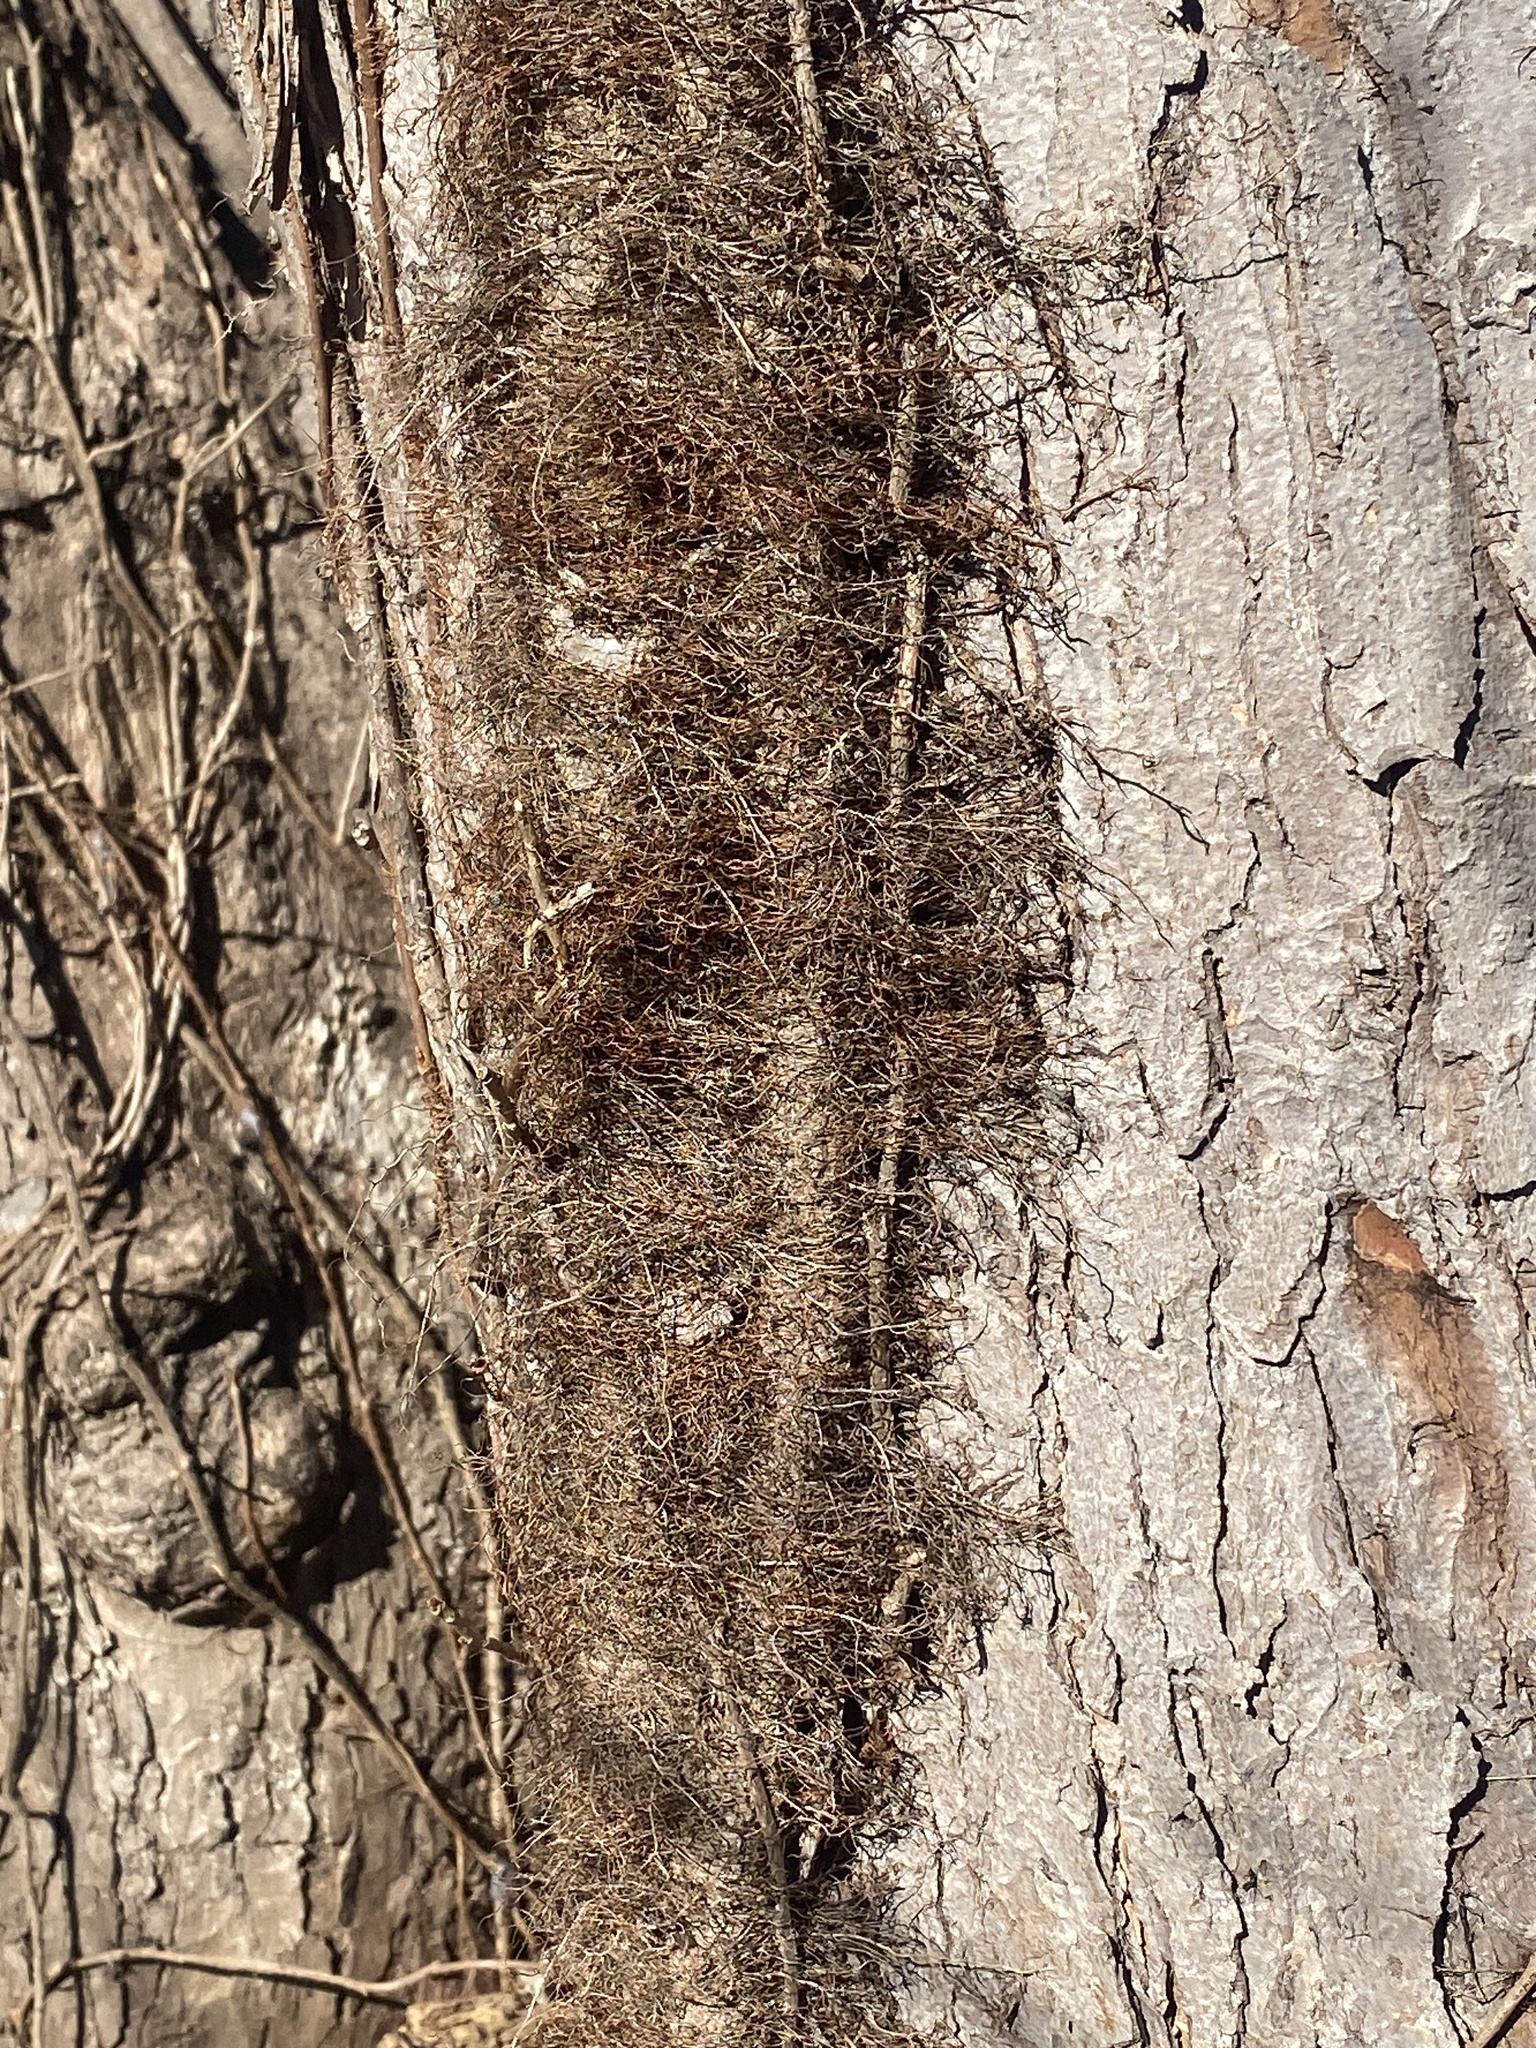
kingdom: Plantae
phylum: Tracheophyta
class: Magnoliopsida
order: Sapindales
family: Anacardiaceae
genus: Toxicodendron
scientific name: Toxicodendron radicans
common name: Poison ivy
